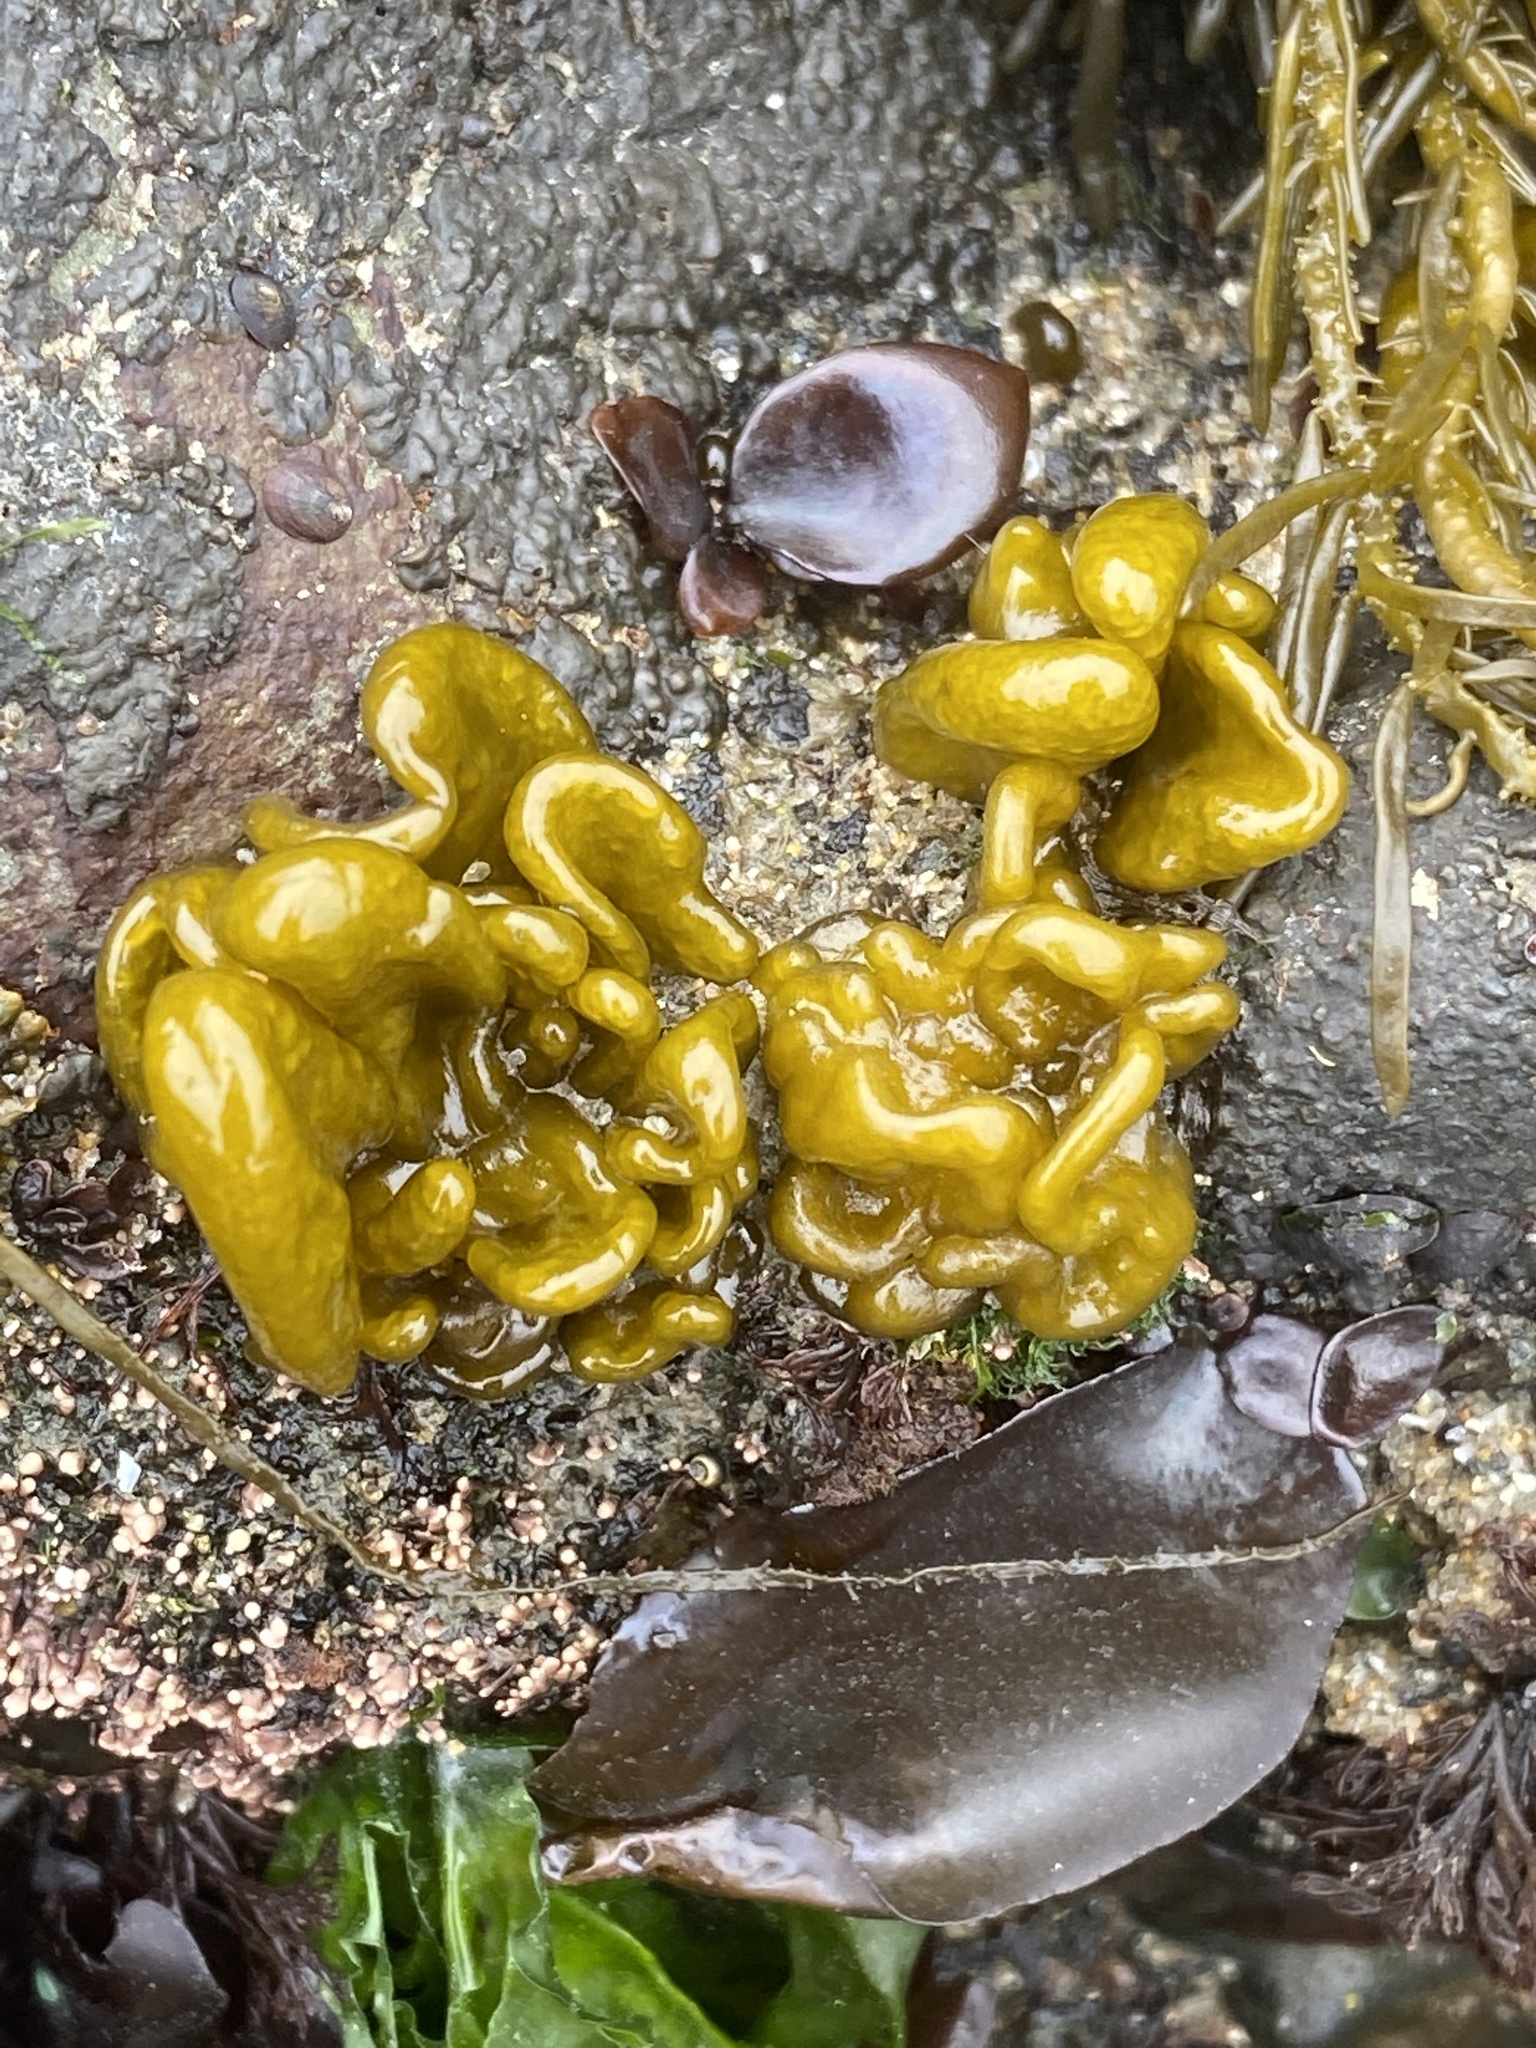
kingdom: Chromista
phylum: Ochrophyta
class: Phaeophyceae
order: Ectocarpales
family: Chordariaceae
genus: Leathesia
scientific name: Leathesia marina
